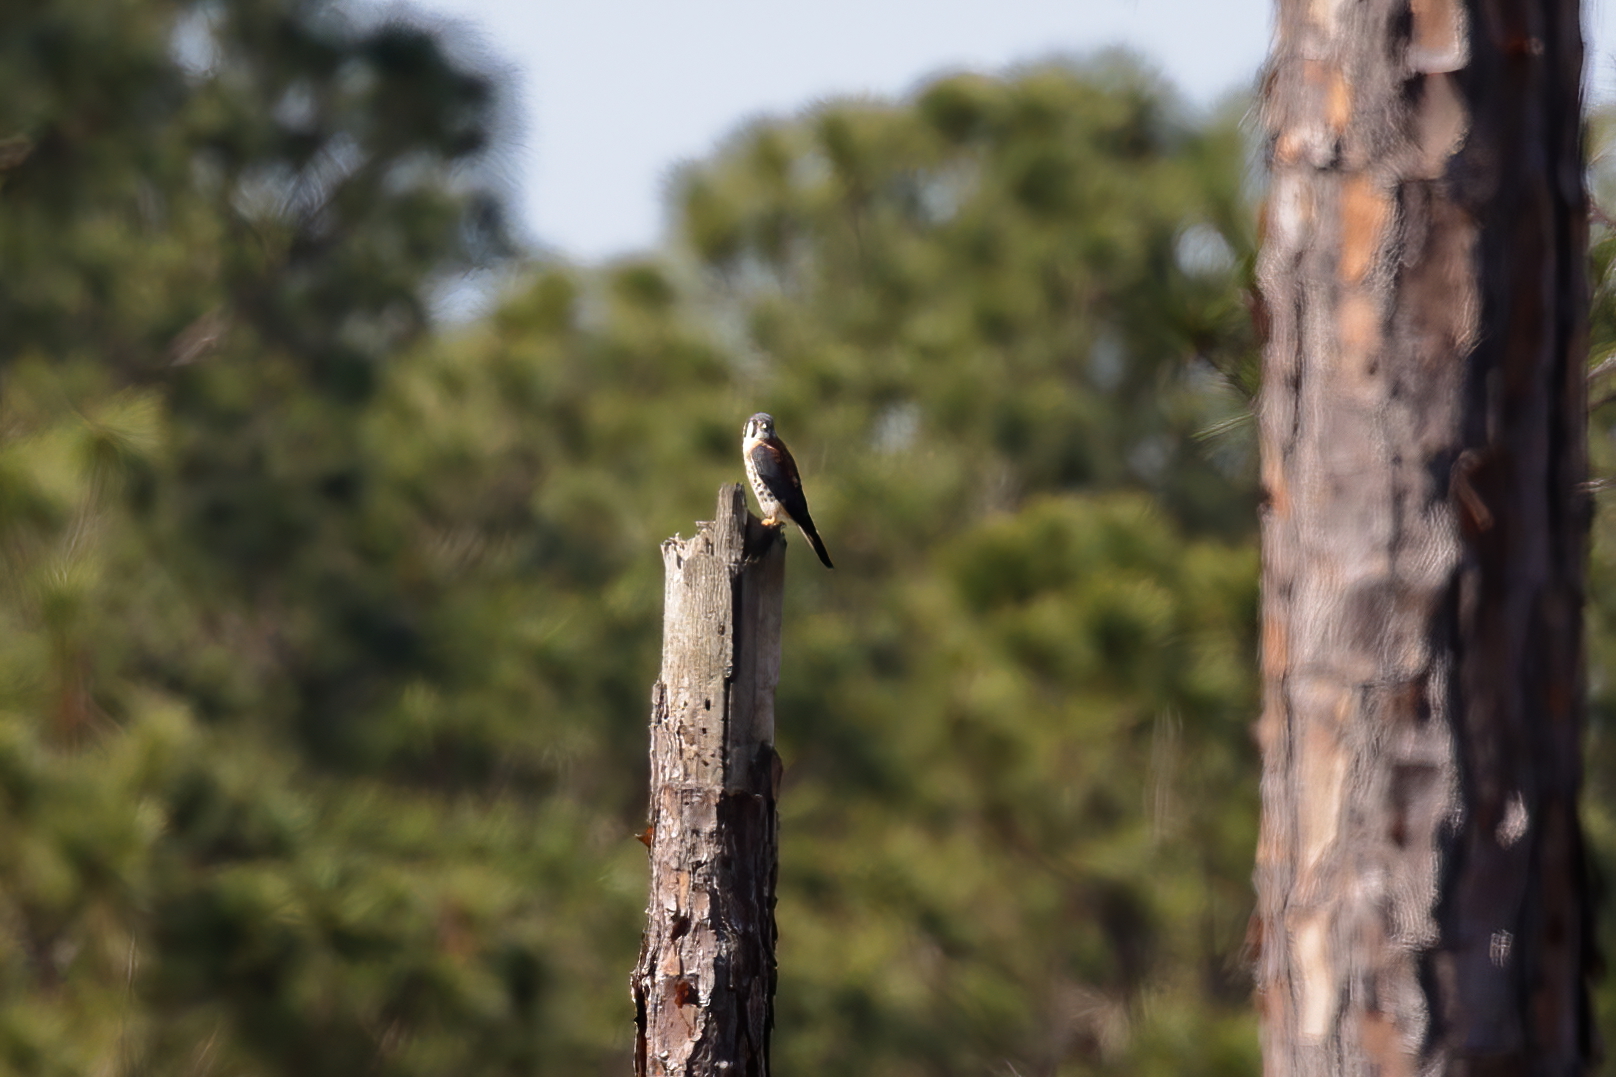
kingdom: Animalia
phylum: Chordata
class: Aves
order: Falconiformes
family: Falconidae
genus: Falco
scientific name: Falco sparverius
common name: American kestrel
